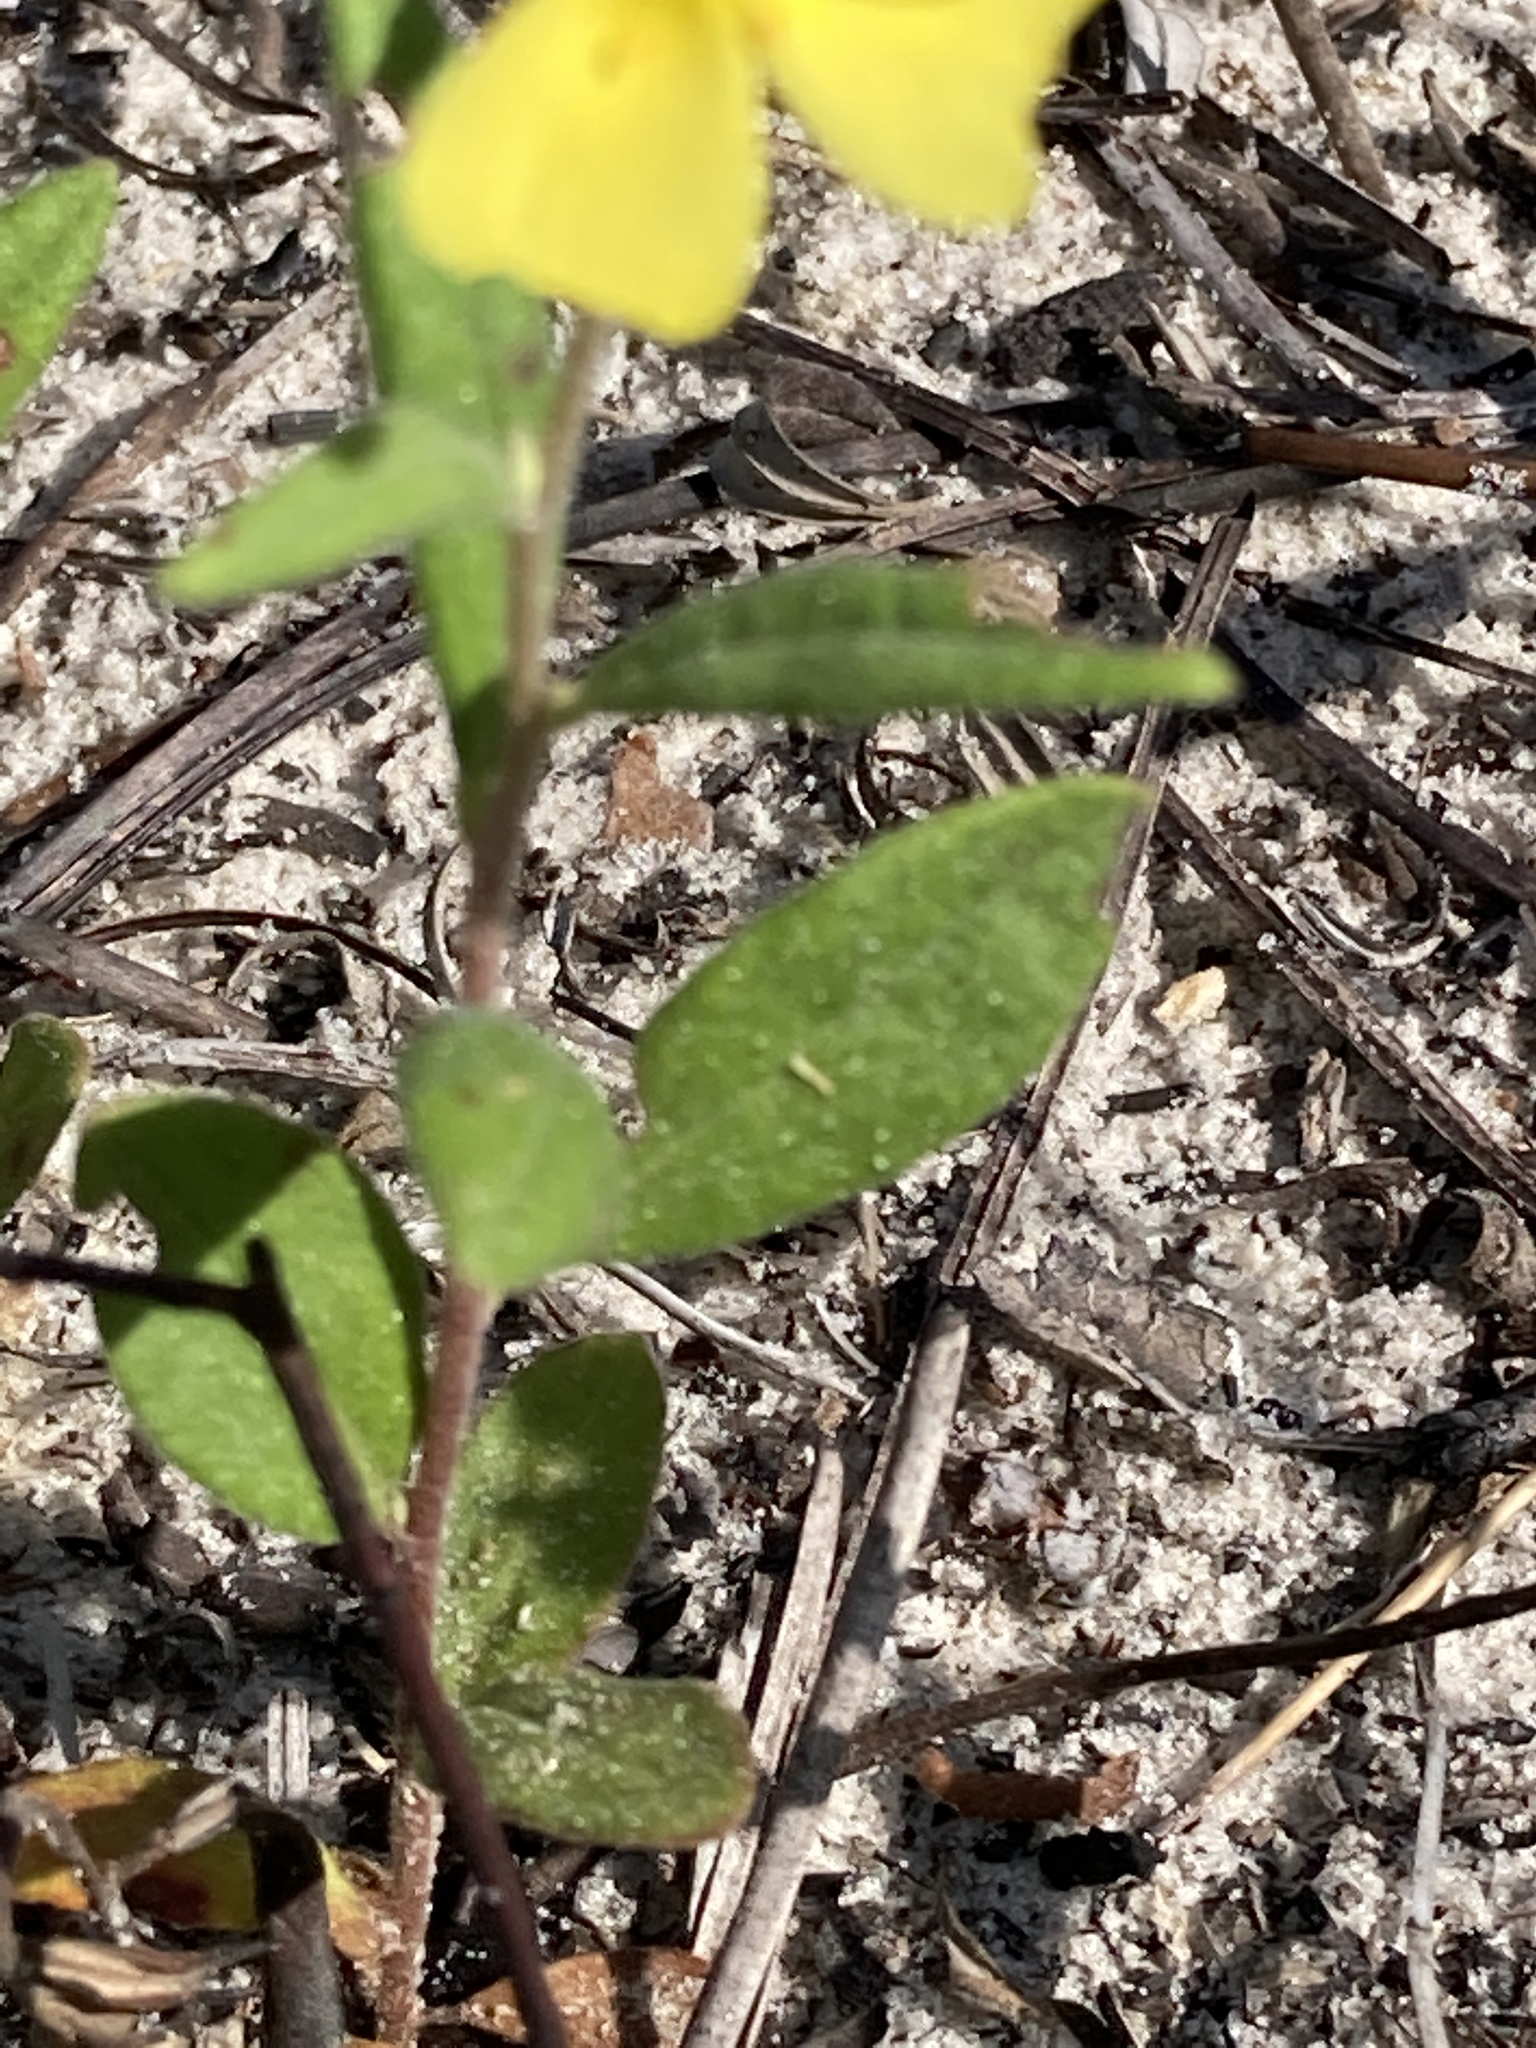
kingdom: Plantae
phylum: Tracheophyta
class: Magnoliopsida
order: Malvales
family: Cistaceae
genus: Crocanthemum
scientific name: Crocanthemum corymbosum
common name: Pinebarren sun-rose
